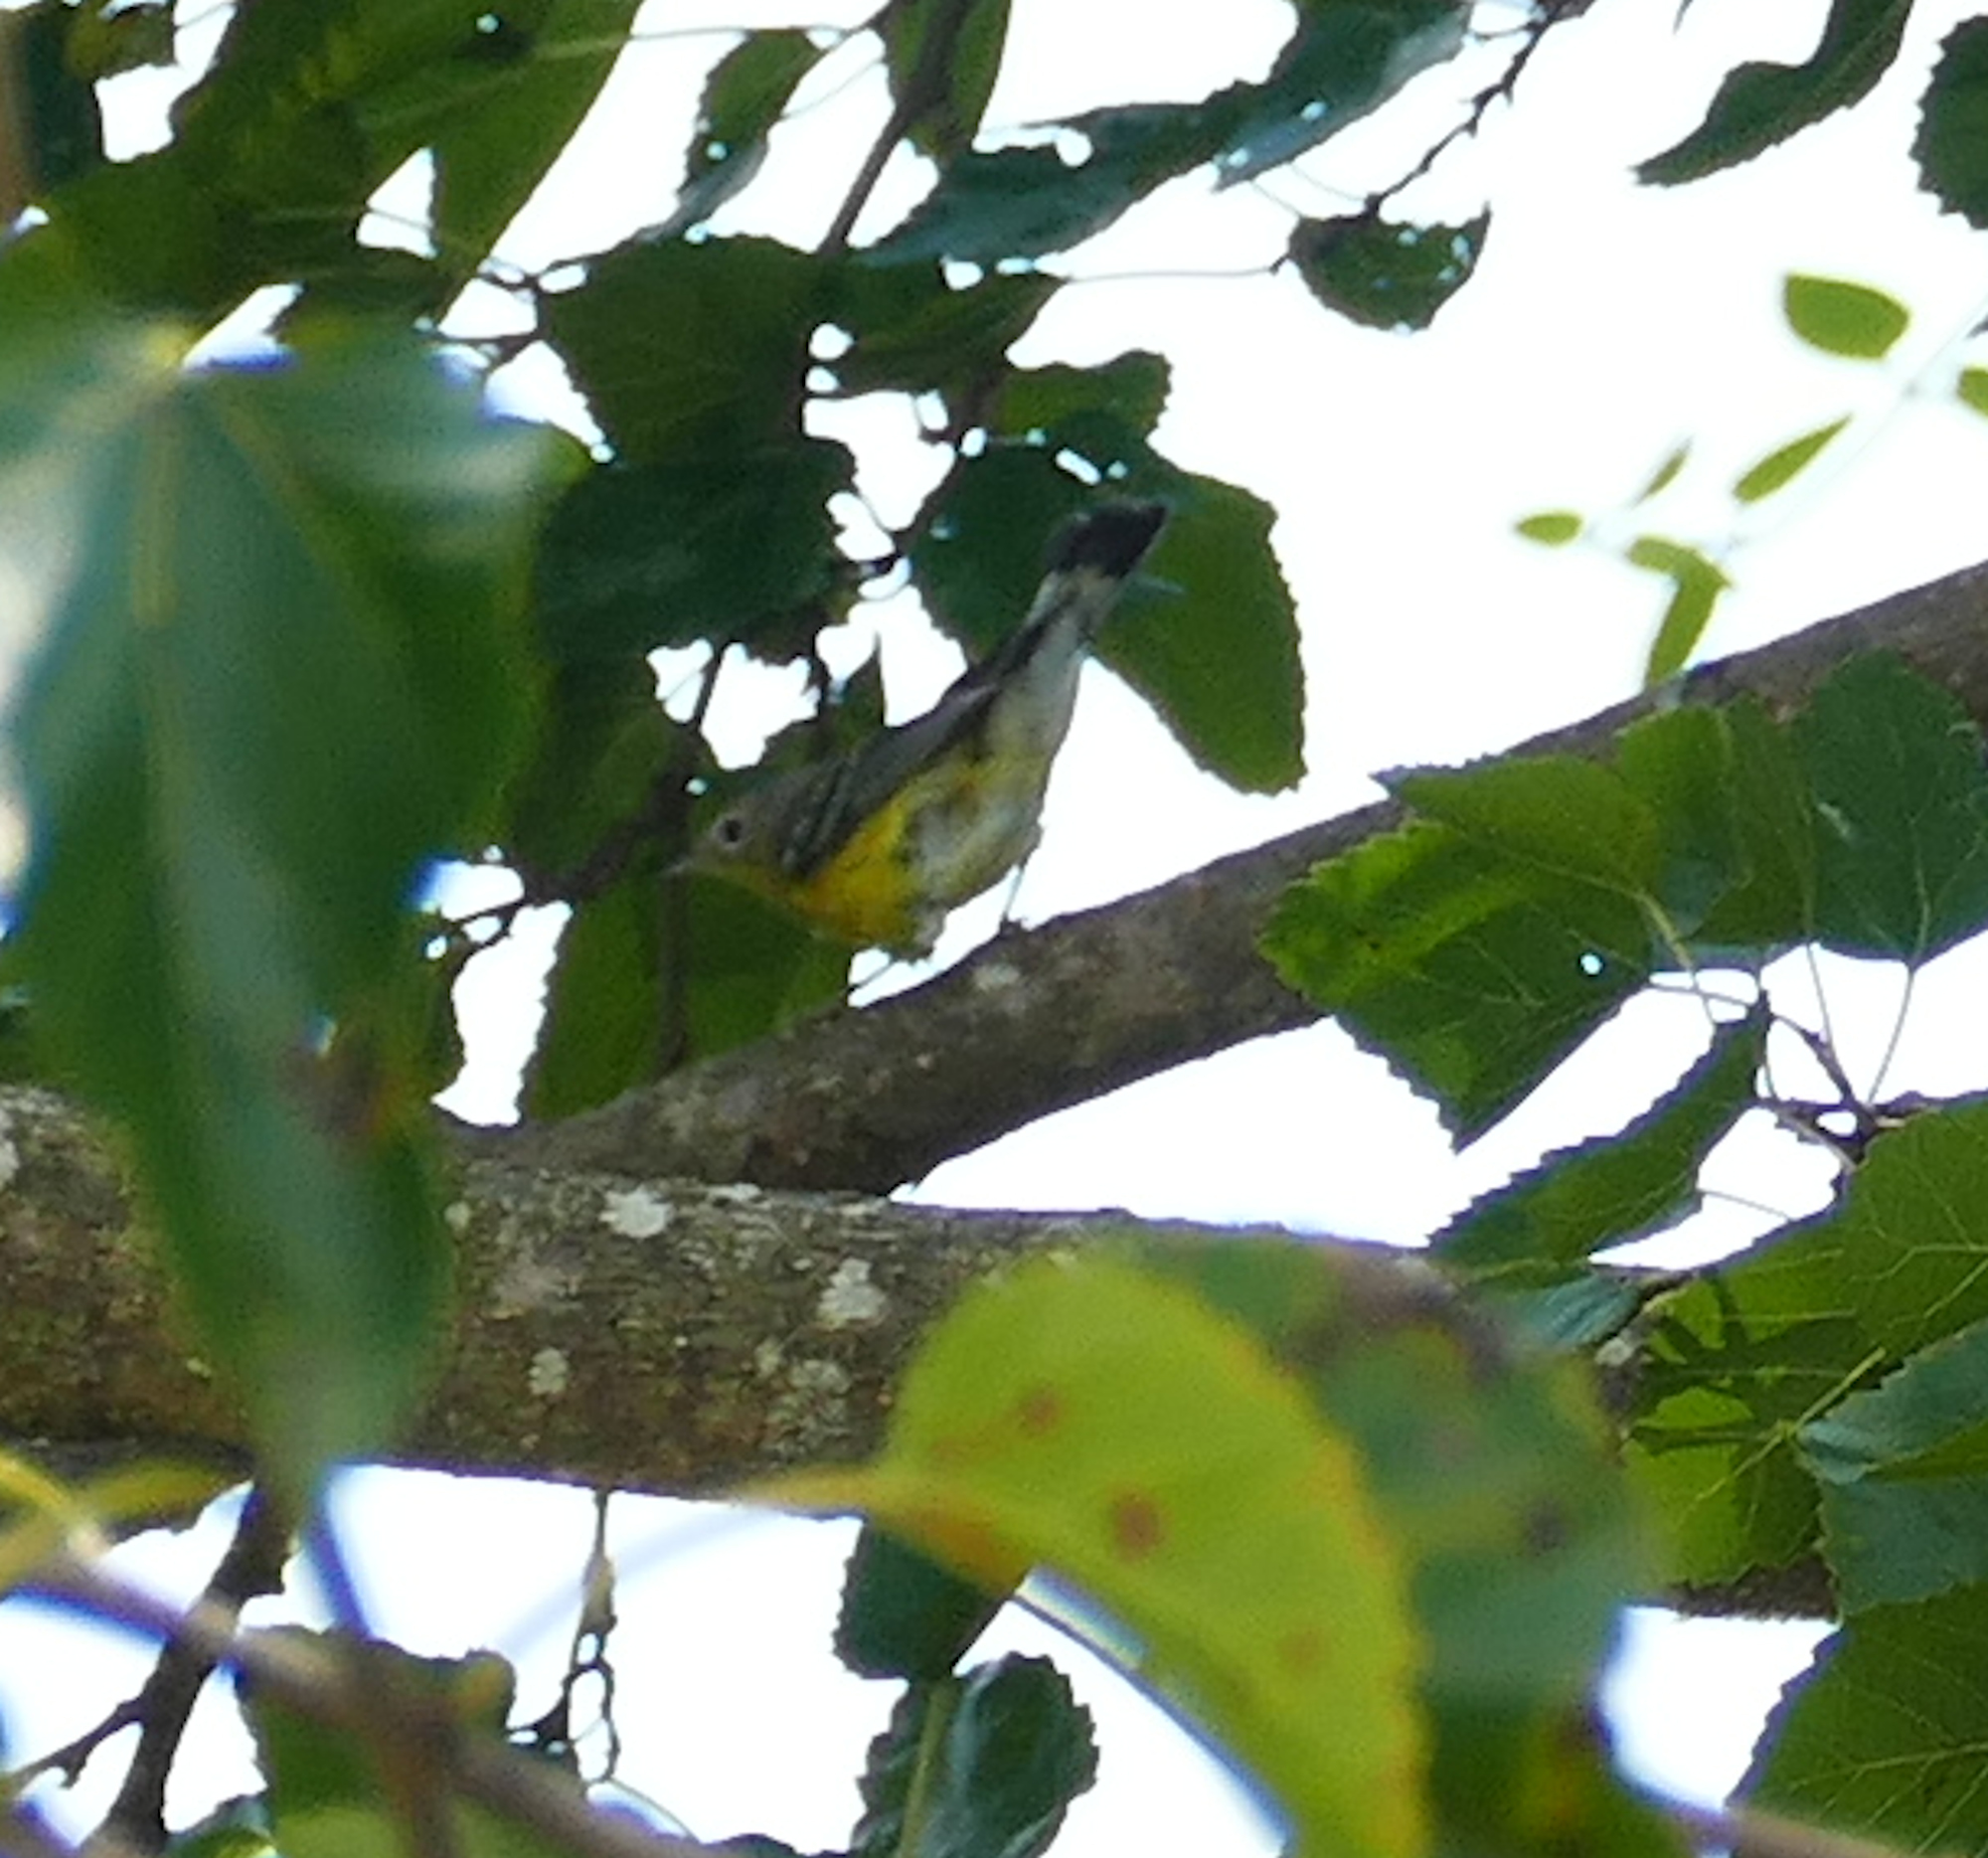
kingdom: Animalia
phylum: Chordata
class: Aves
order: Passeriformes
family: Parulidae
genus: Setophaga
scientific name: Setophaga magnolia
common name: Magnolia warbler
